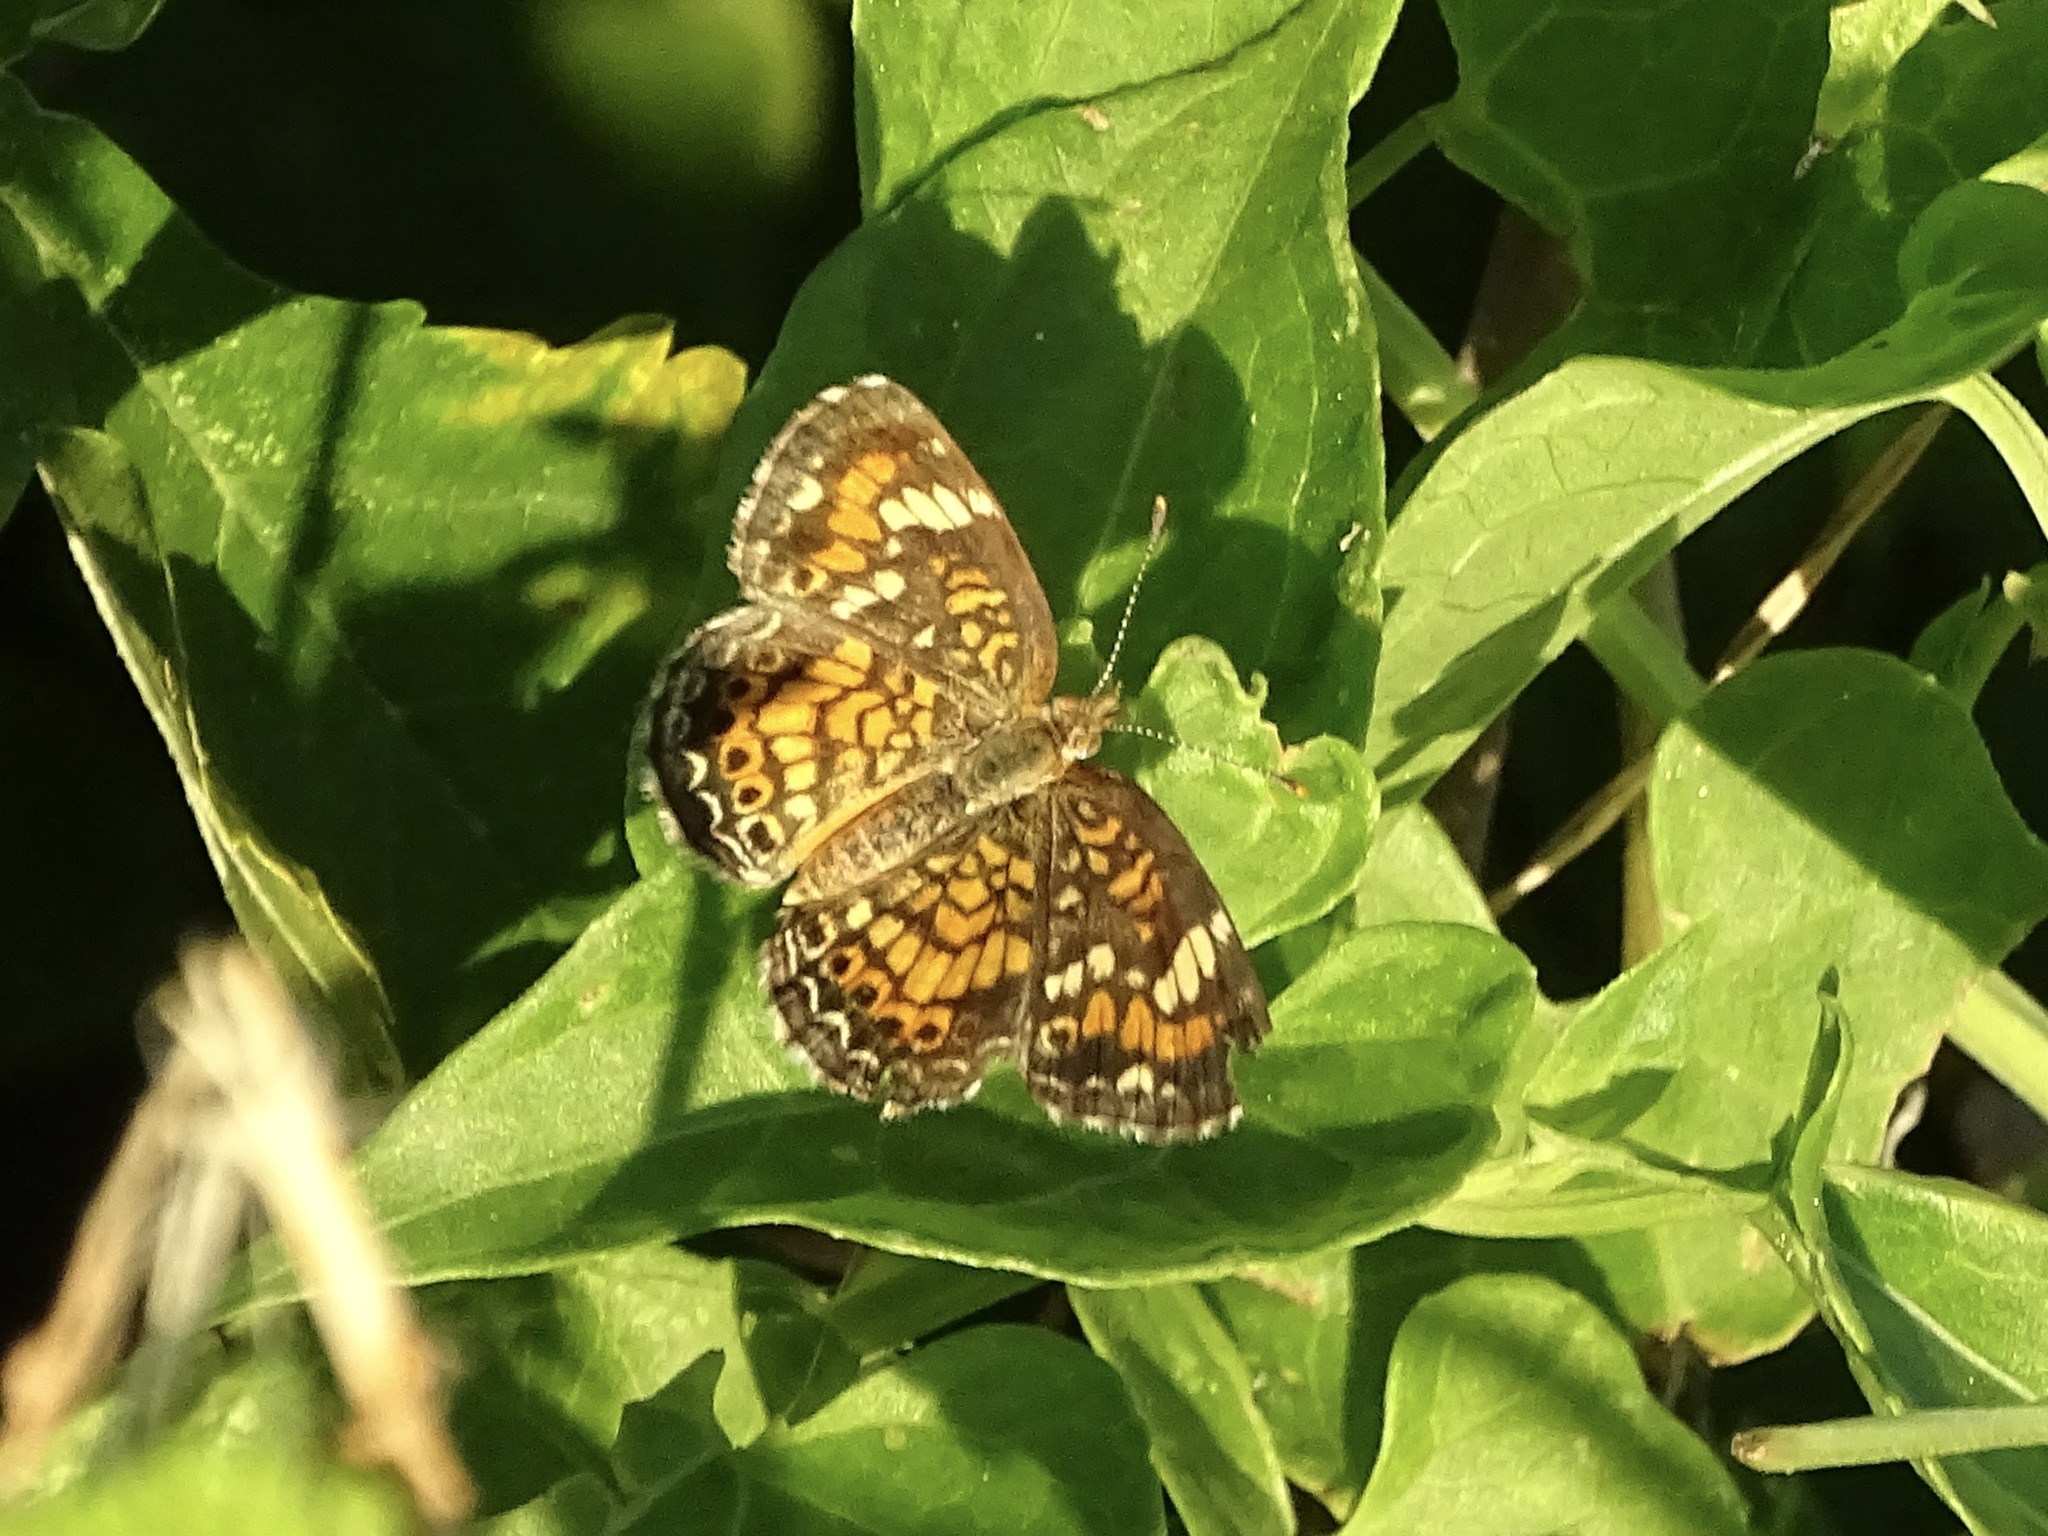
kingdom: Animalia
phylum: Arthropoda
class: Insecta
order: Lepidoptera
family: Nymphalidae
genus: Phyciodes
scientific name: Phyciodes phaon
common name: Phaon crescent
